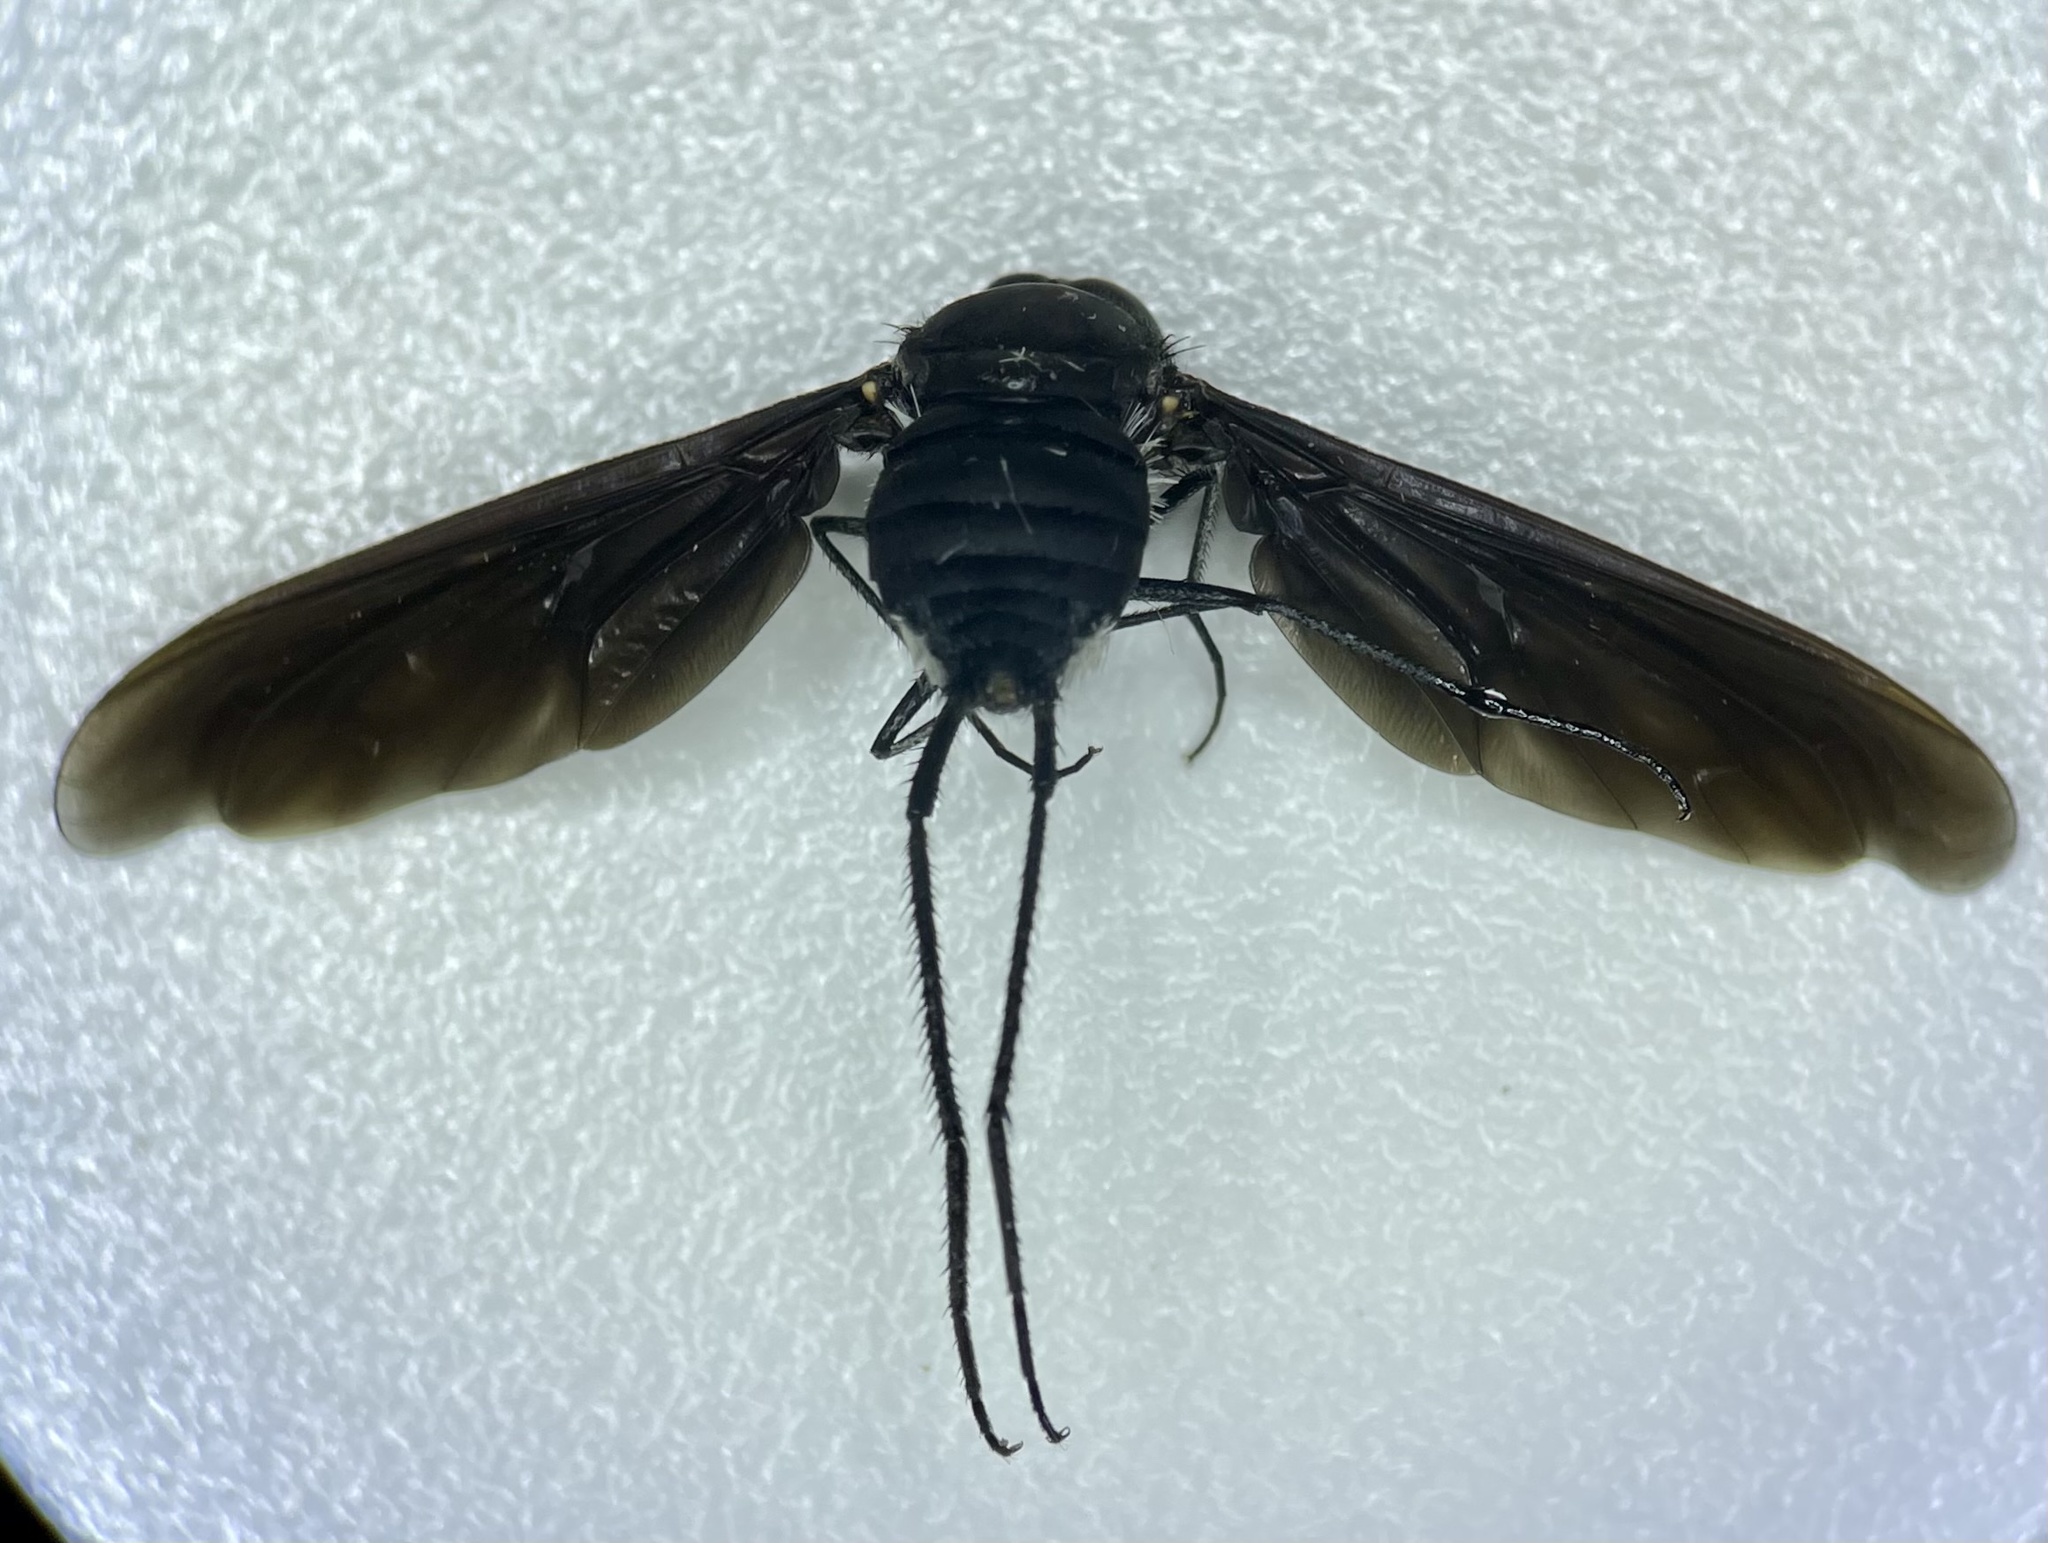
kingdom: Animalia
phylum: Arthropoda
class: Insecta
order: Diptera
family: Bombyliidae
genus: Brachyanax
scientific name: Brachyanax aterrimus
